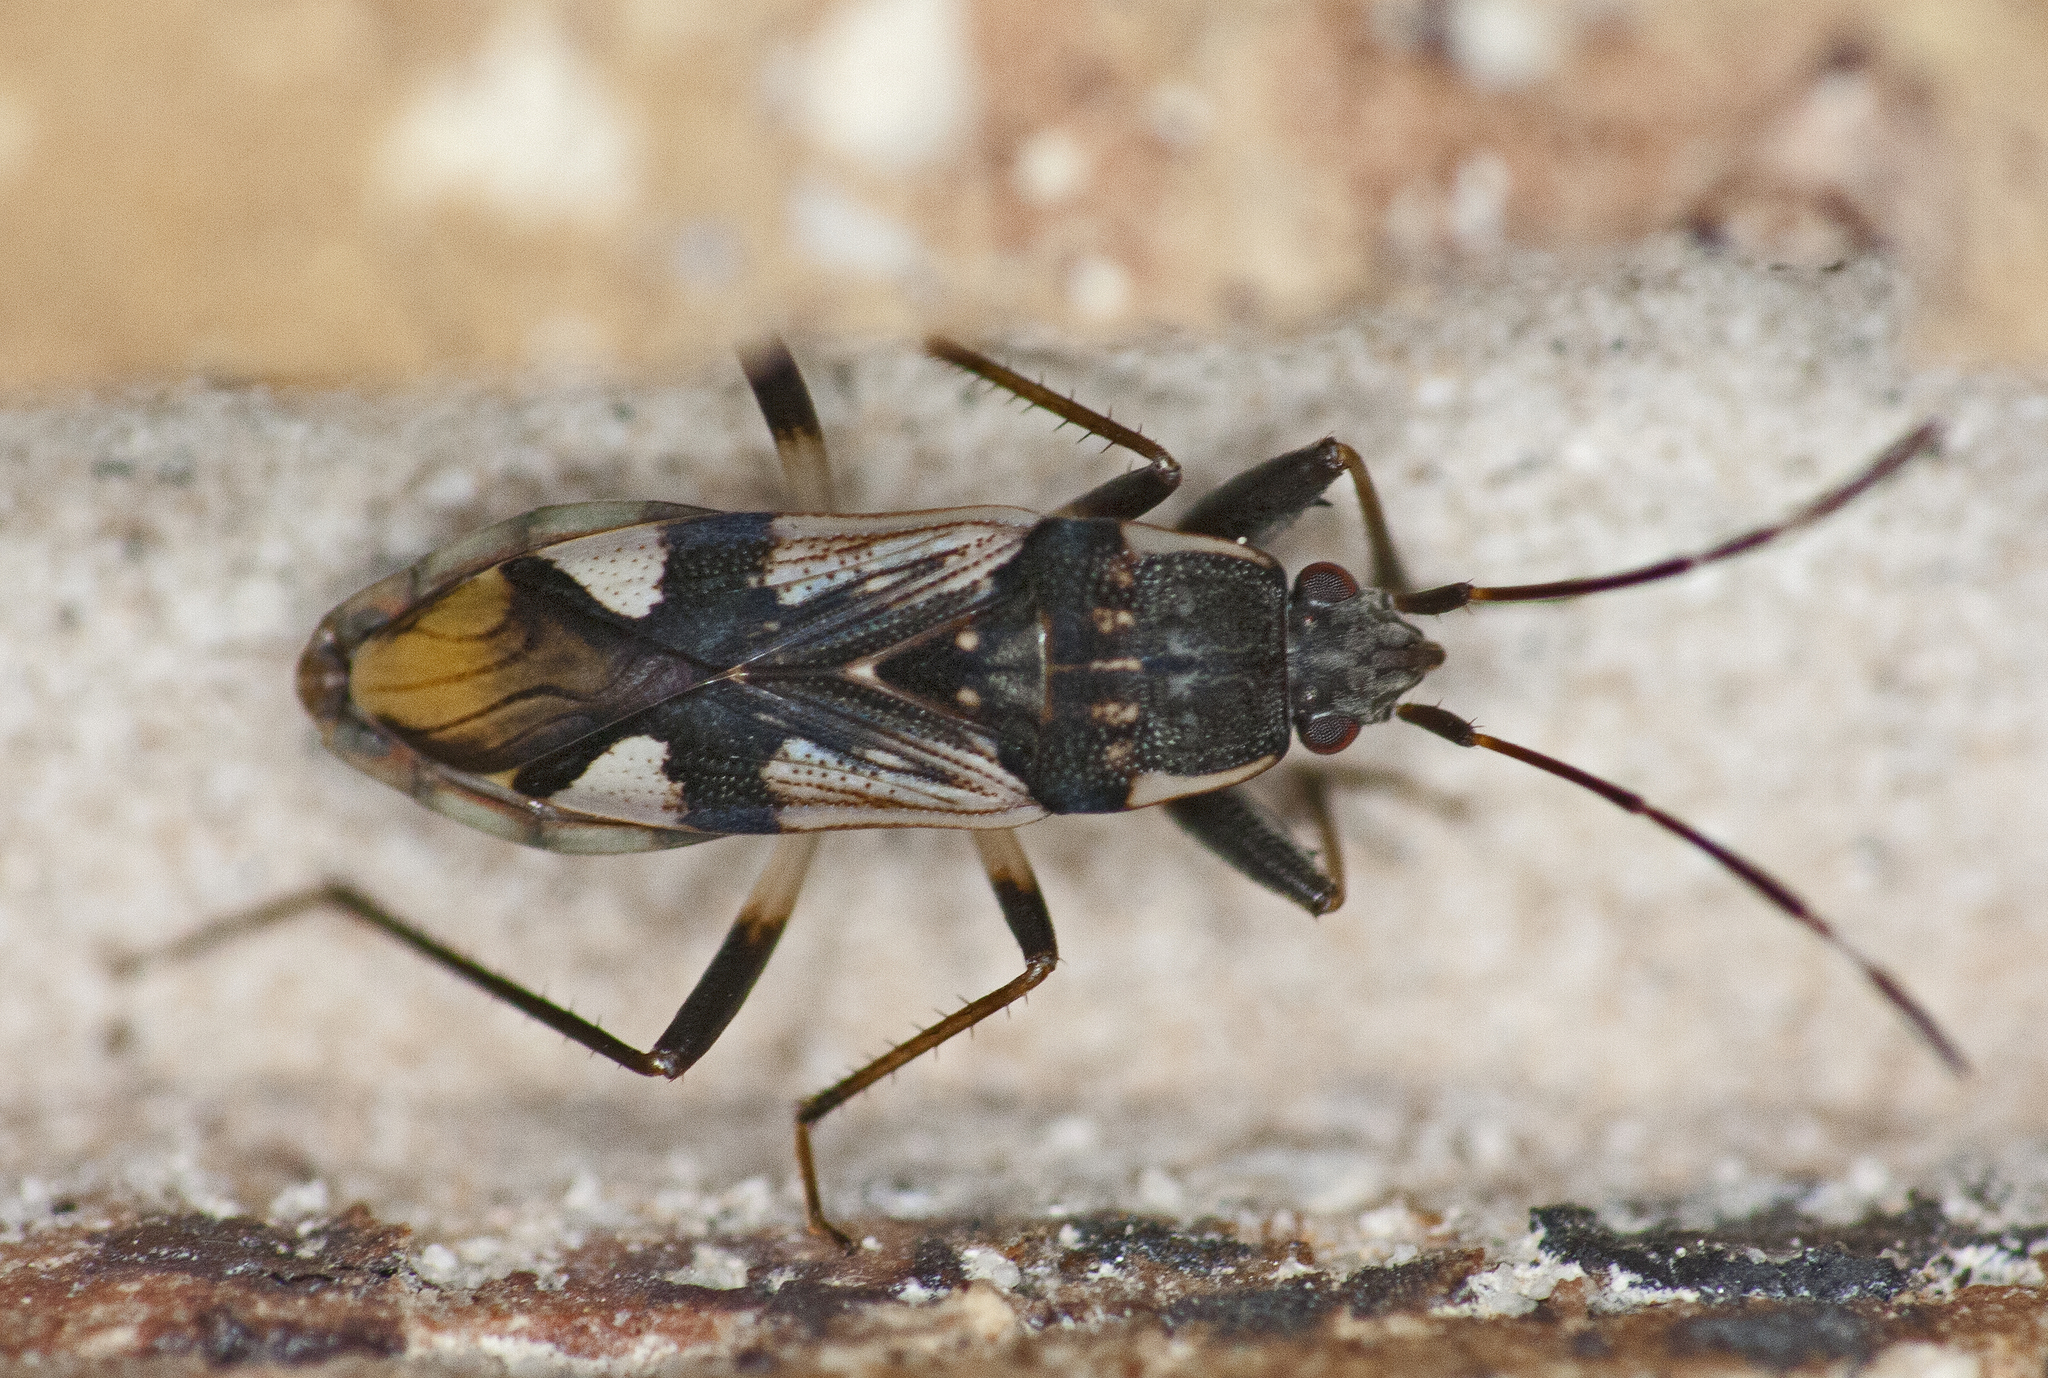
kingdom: Animalia
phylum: Arthropoda
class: Insecta
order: Hemiptera
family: Rhyparochromidae
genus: Dieuches
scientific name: Dieuches membranaceus
